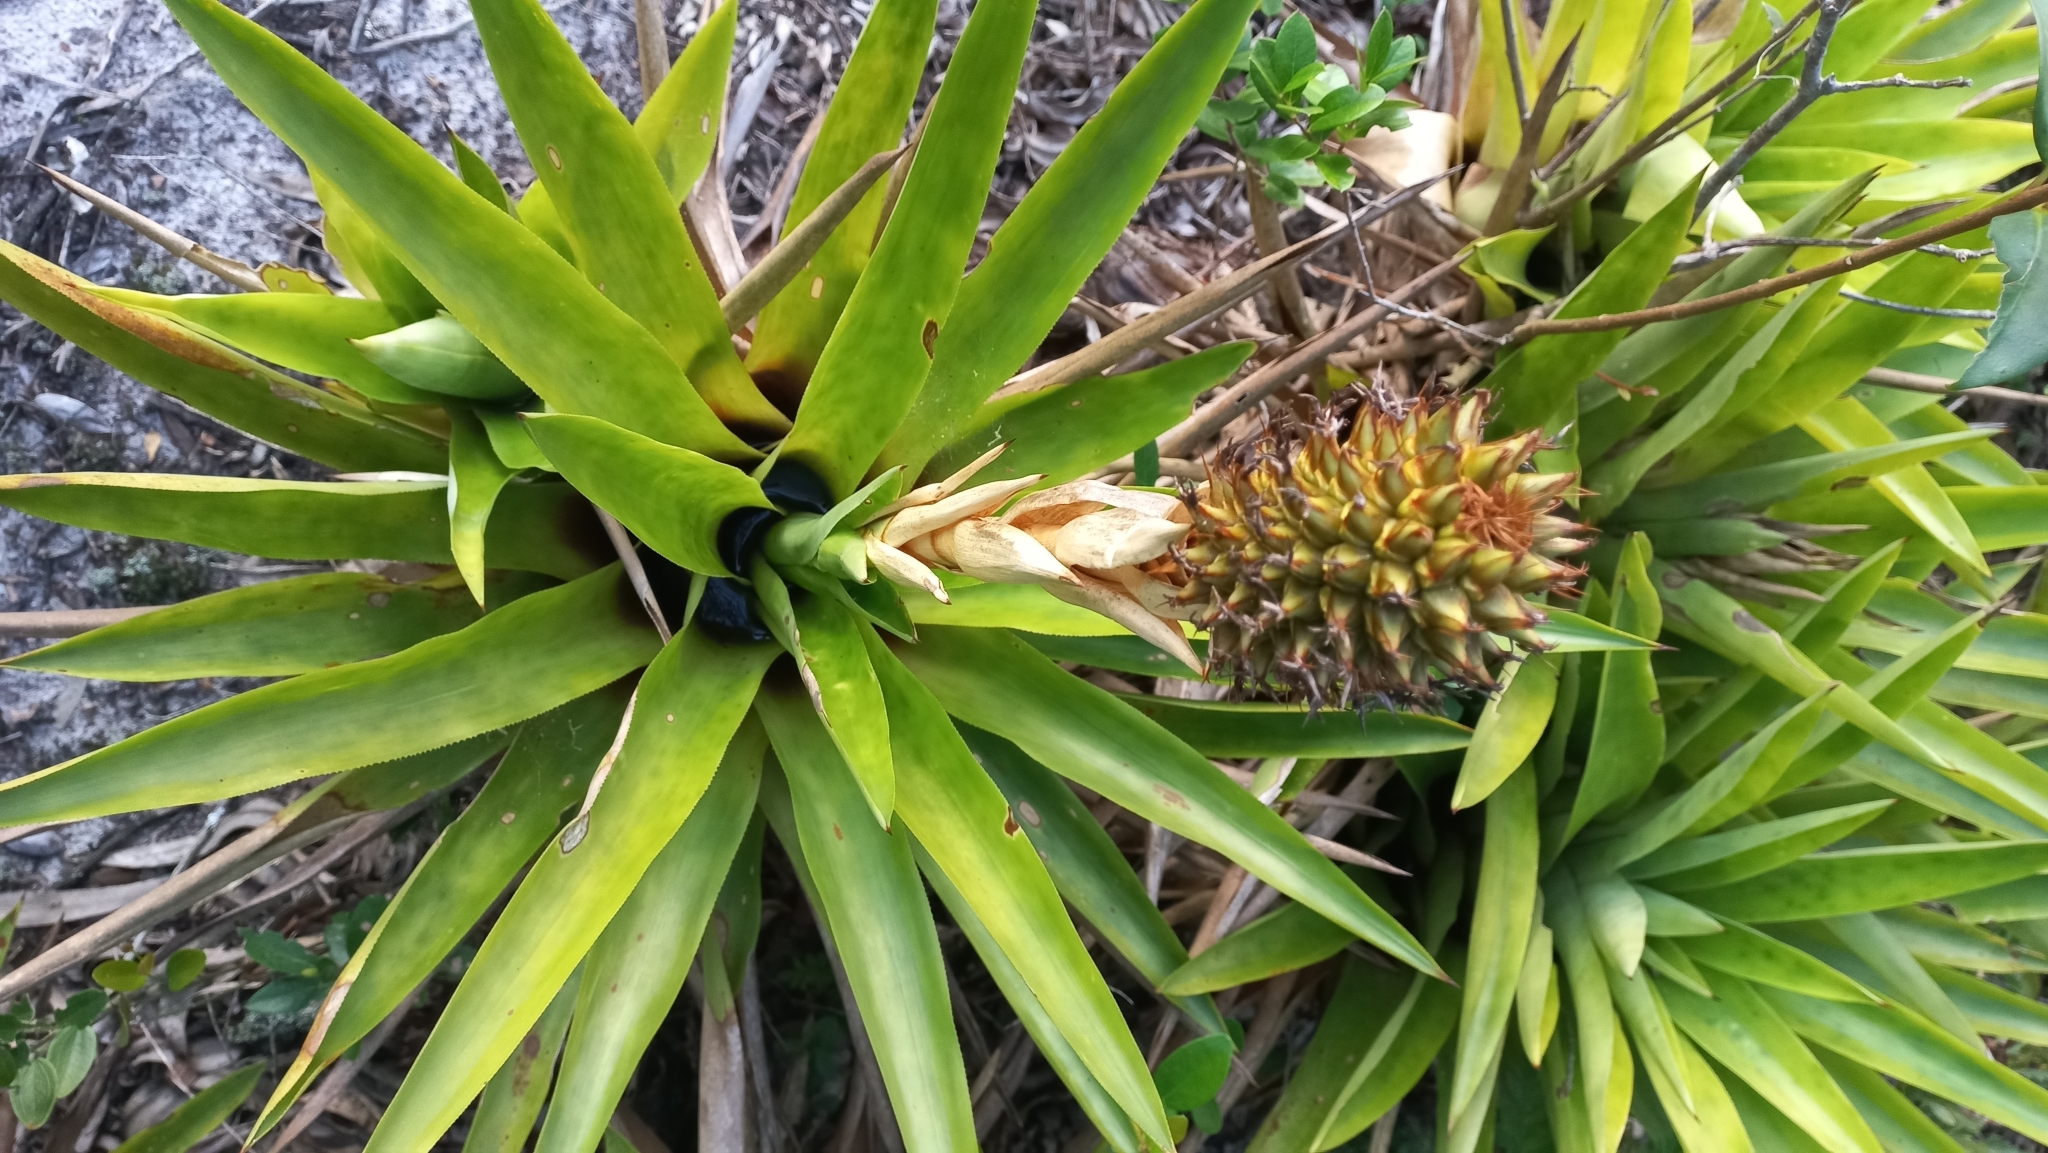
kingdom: Plantae
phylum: Tracheophyta
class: Liliopsida
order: Poales
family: Bromeliaceae
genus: Aechmea
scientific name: Aechmea ornata
